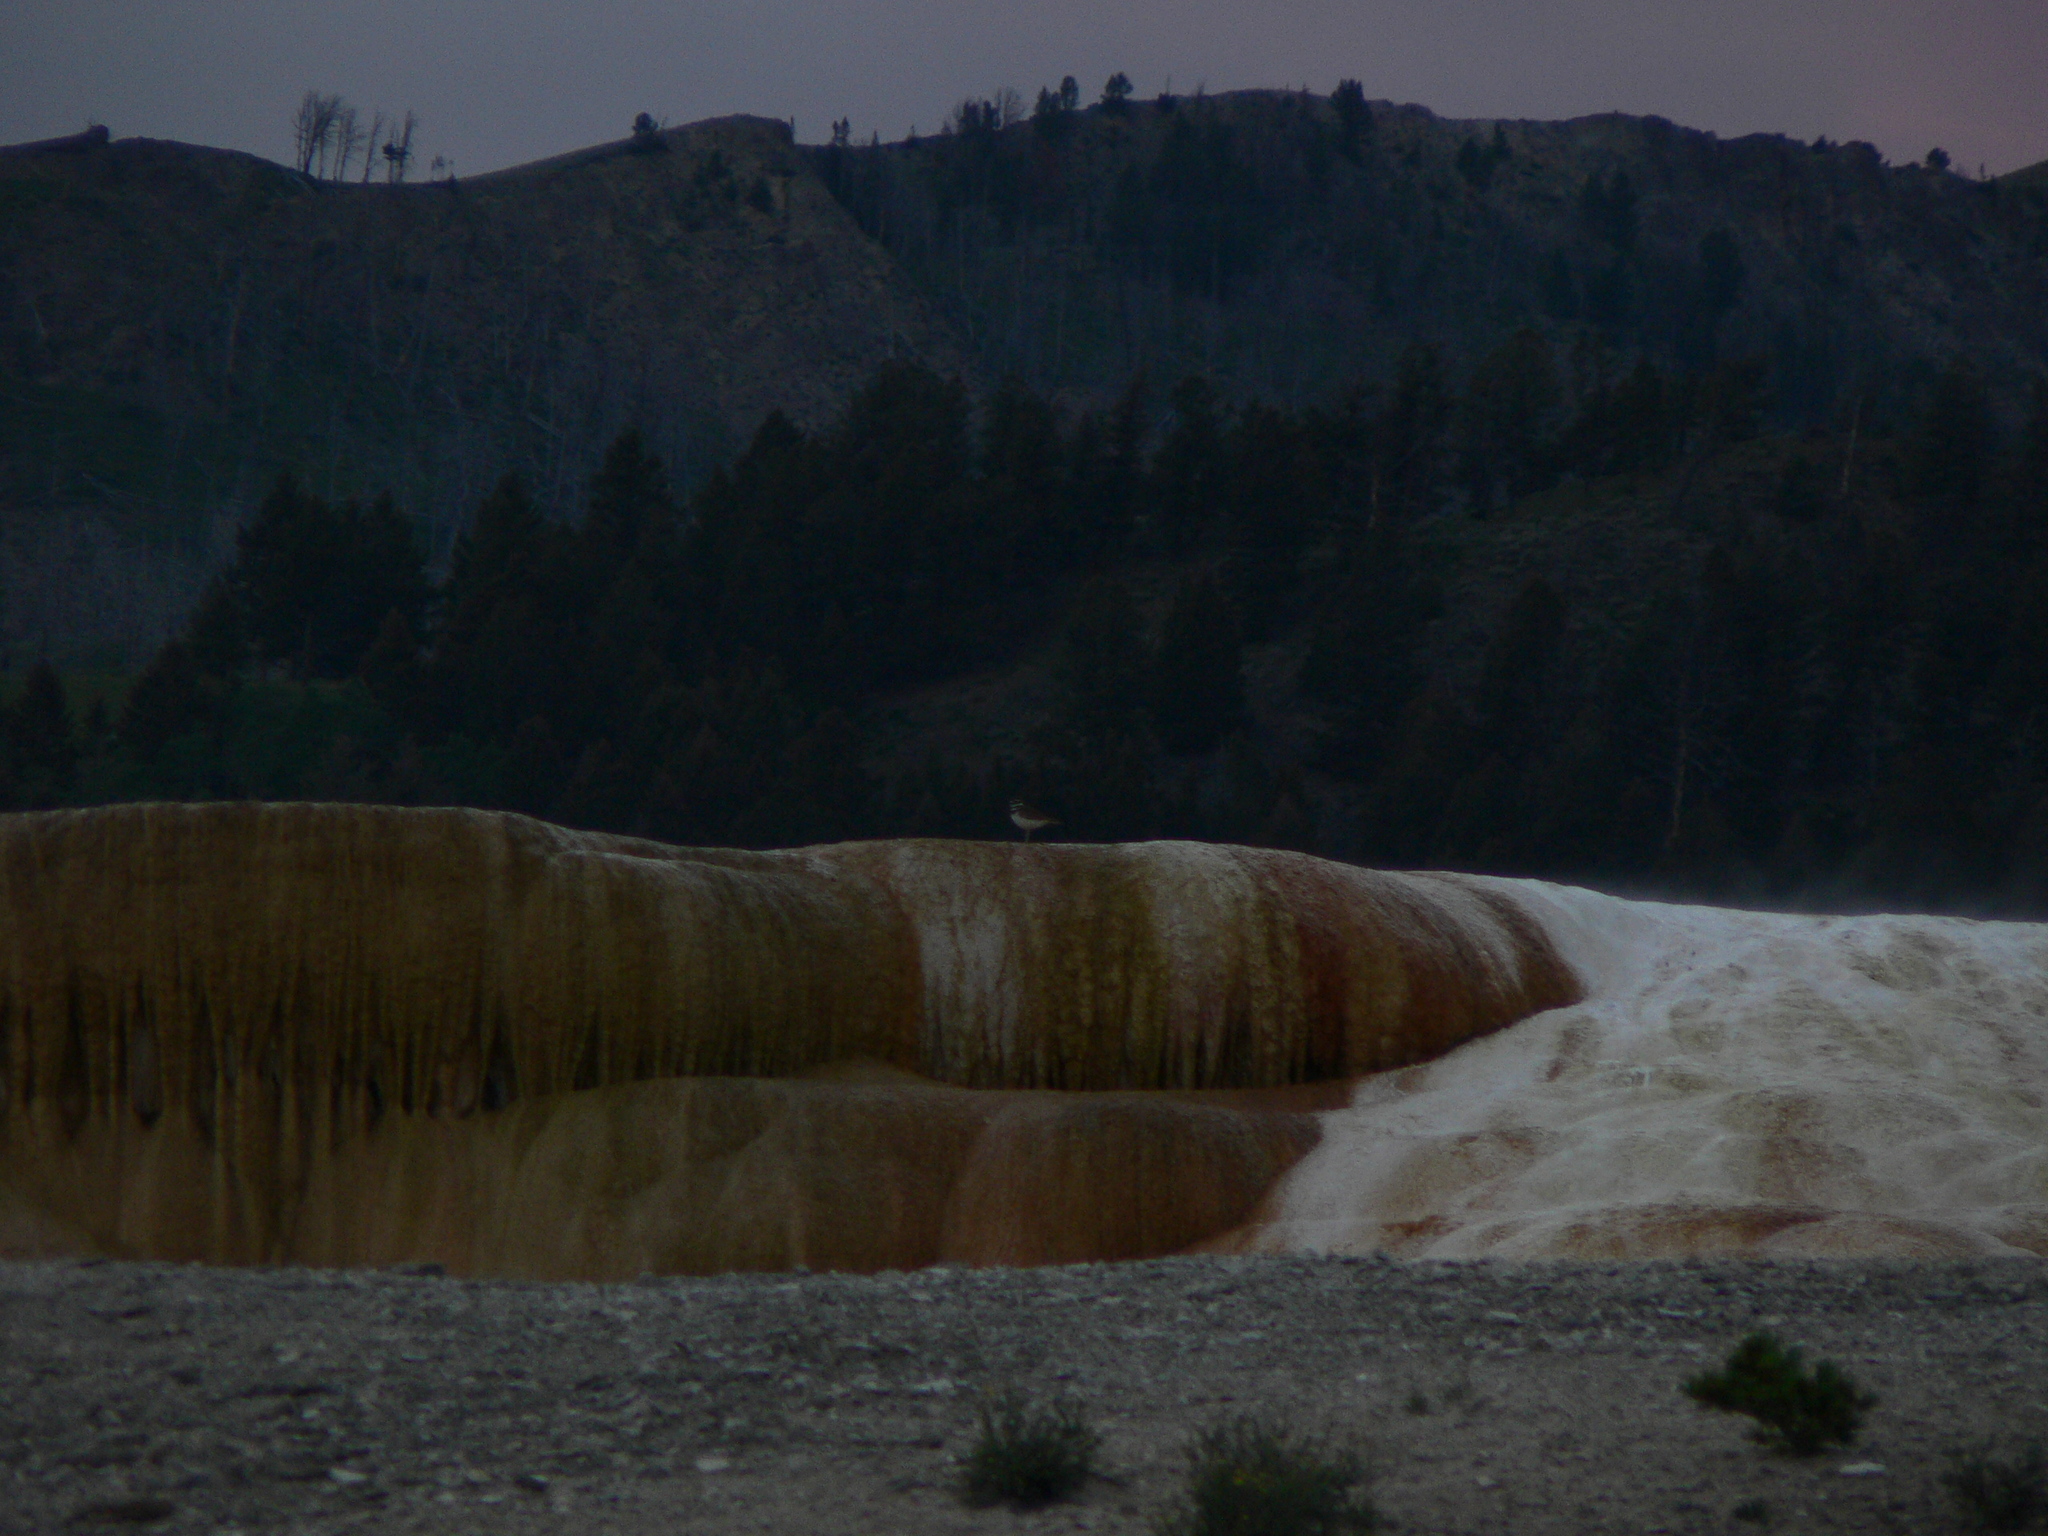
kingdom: Animalia
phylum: Chordata
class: Aves
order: Charadriiformes
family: Charadriidae
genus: Charadrius
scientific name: Charadrius vociferus
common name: Killdeer
